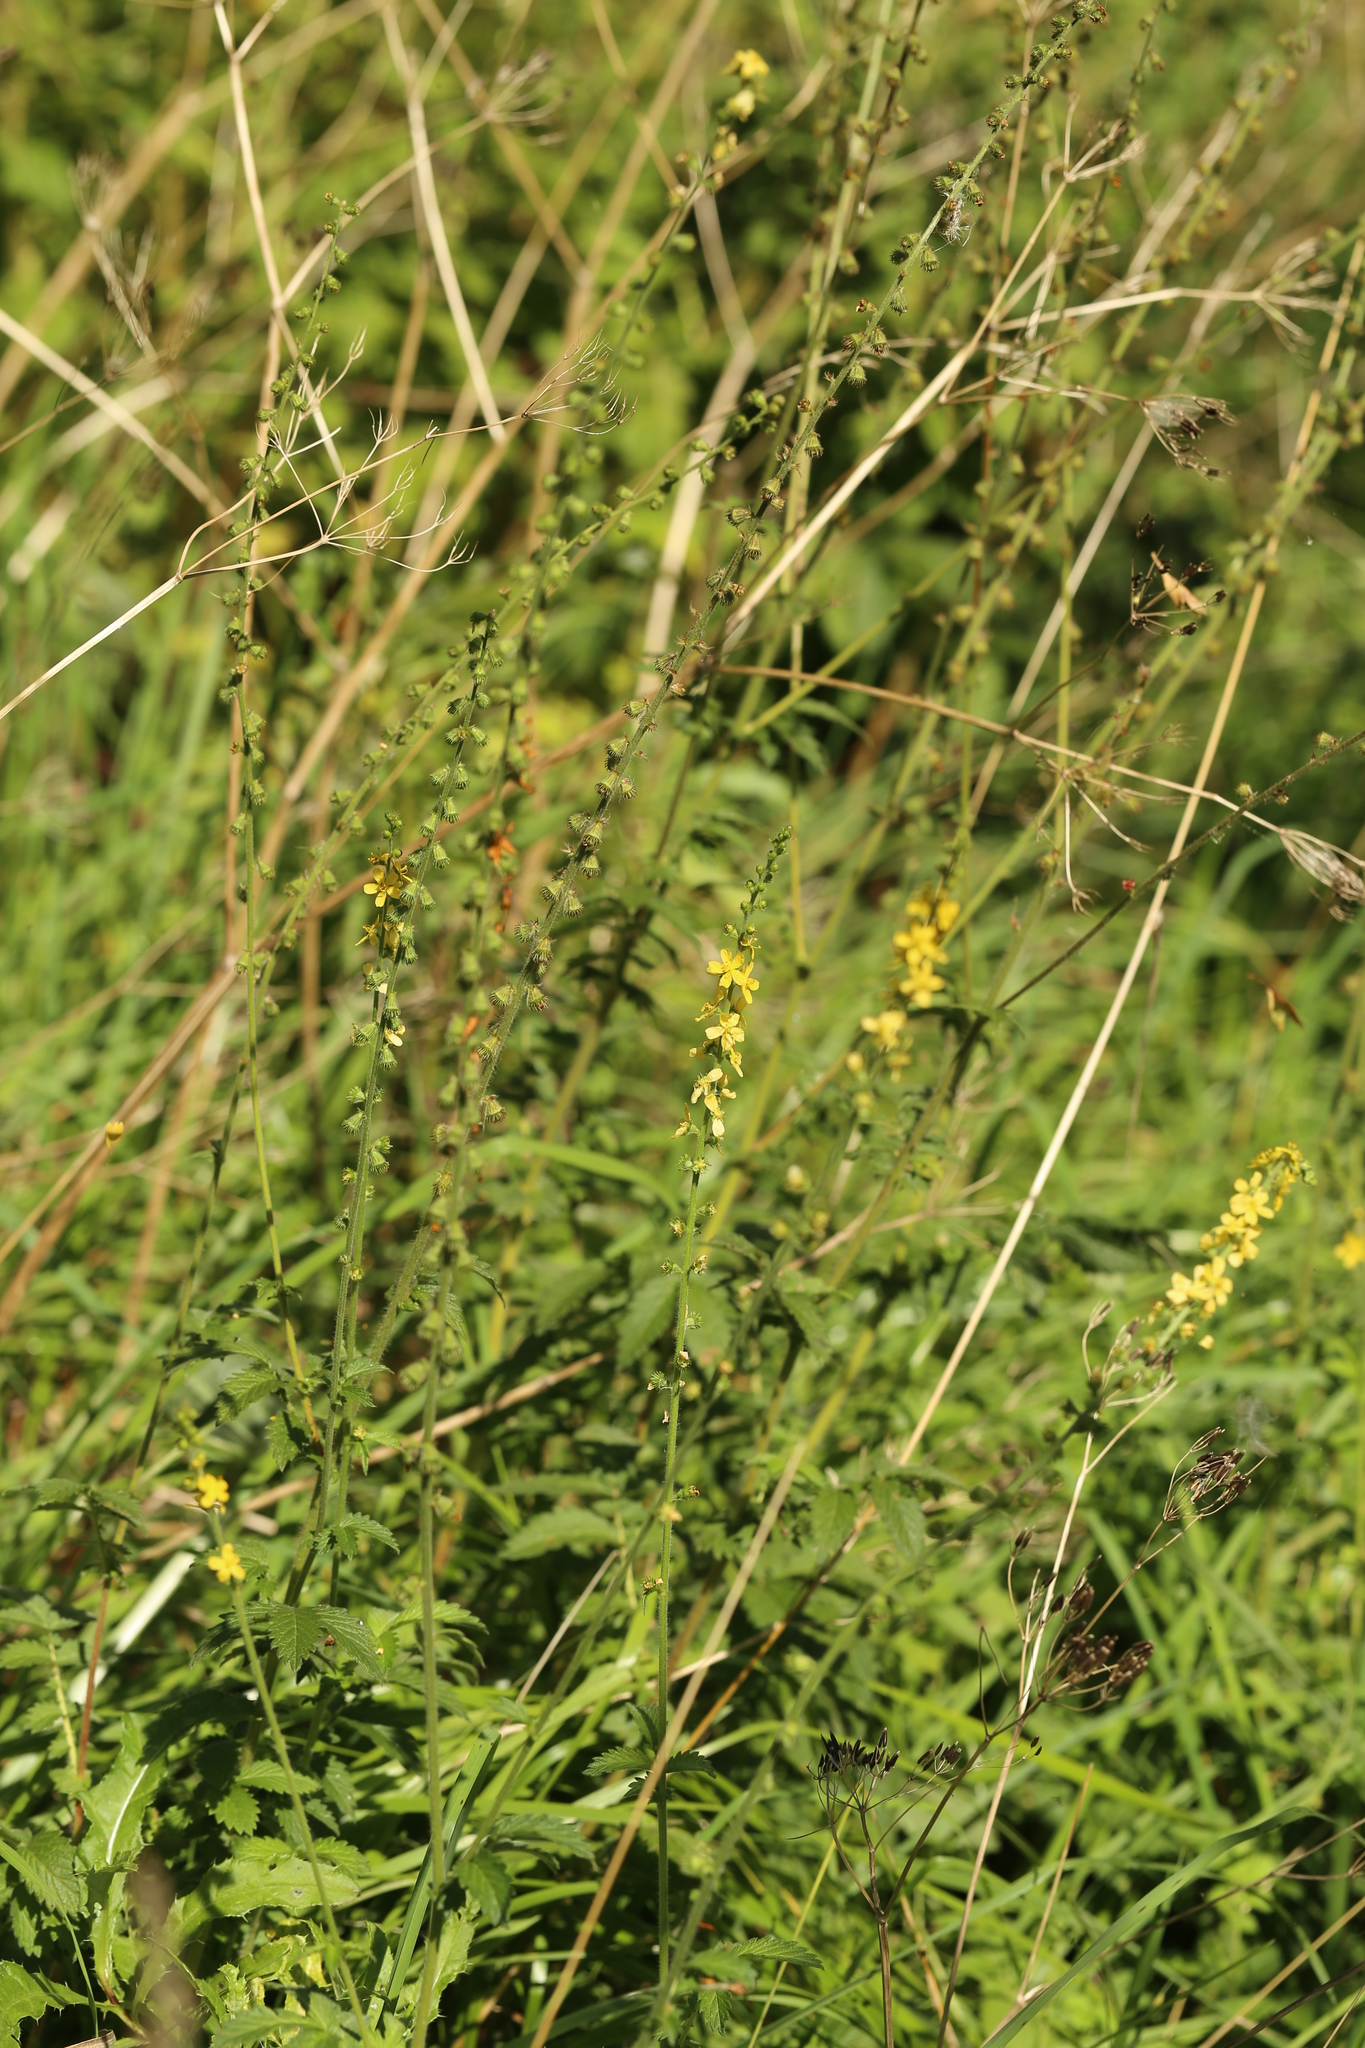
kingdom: Plantae
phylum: Tracheophyta
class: Magnoliopsida
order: Rosales
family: Rosaceae
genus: Agrimonia
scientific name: Agrimonia eupatoria
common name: Agrimony
